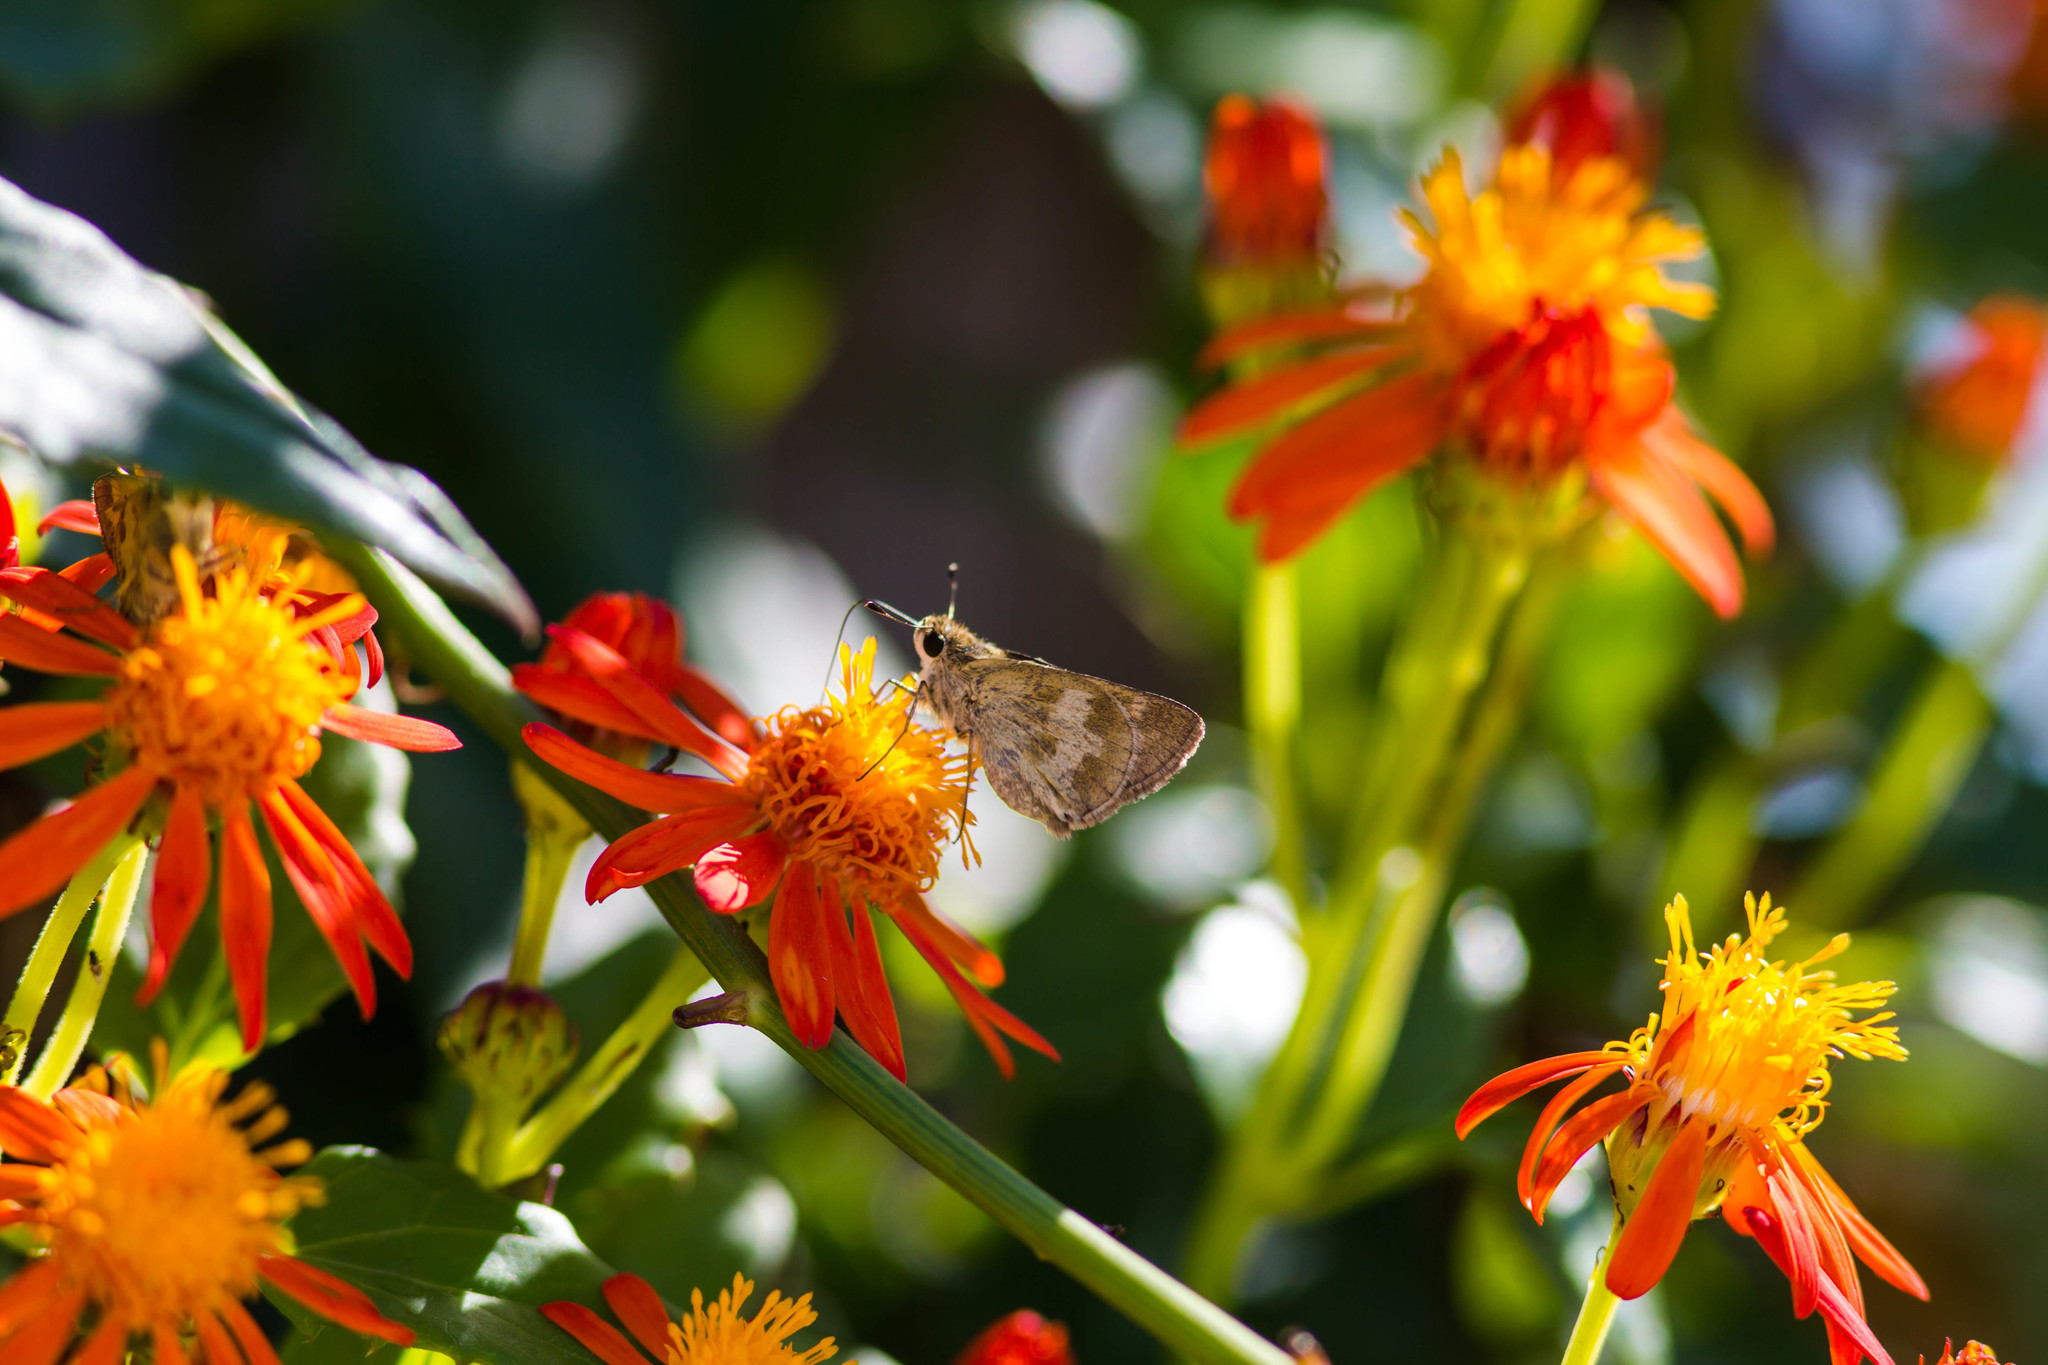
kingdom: Animalia
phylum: Arthropoda
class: Insecta
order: Lepidoptera
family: Hesperiidae
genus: Polites
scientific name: Polites vibex
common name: Whirlabout
